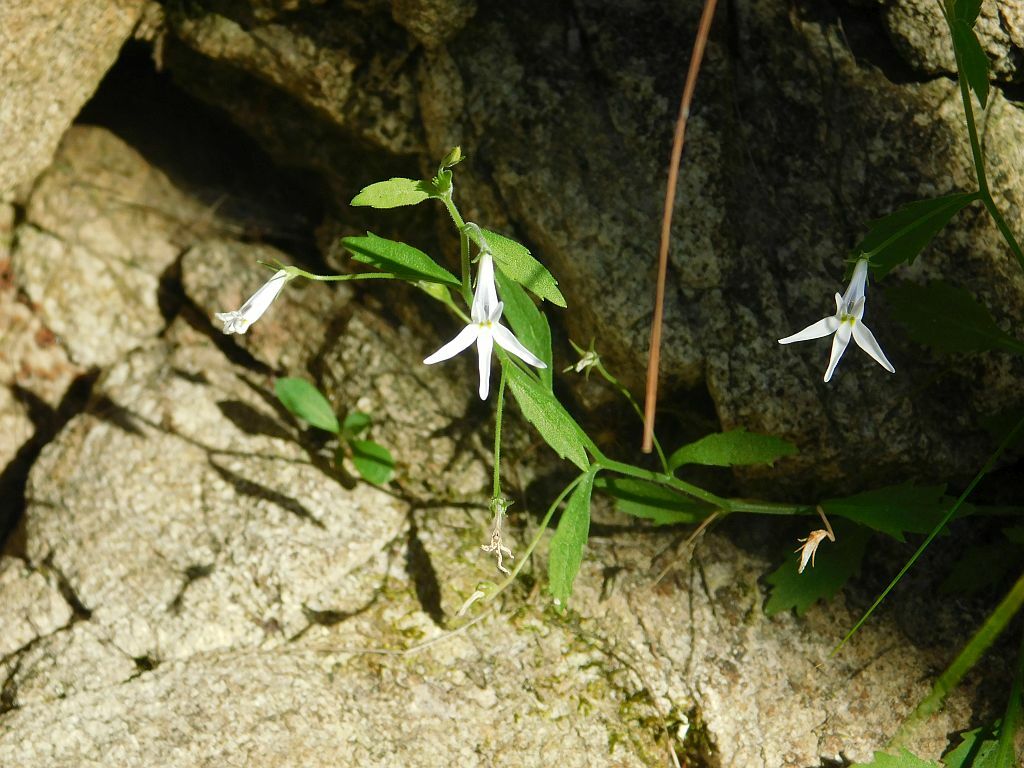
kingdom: Plantae
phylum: Tracheophyta
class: Magnoliopsida
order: Asterales
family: Campanulaceae
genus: Lobelia
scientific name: Lobelia pubescens
